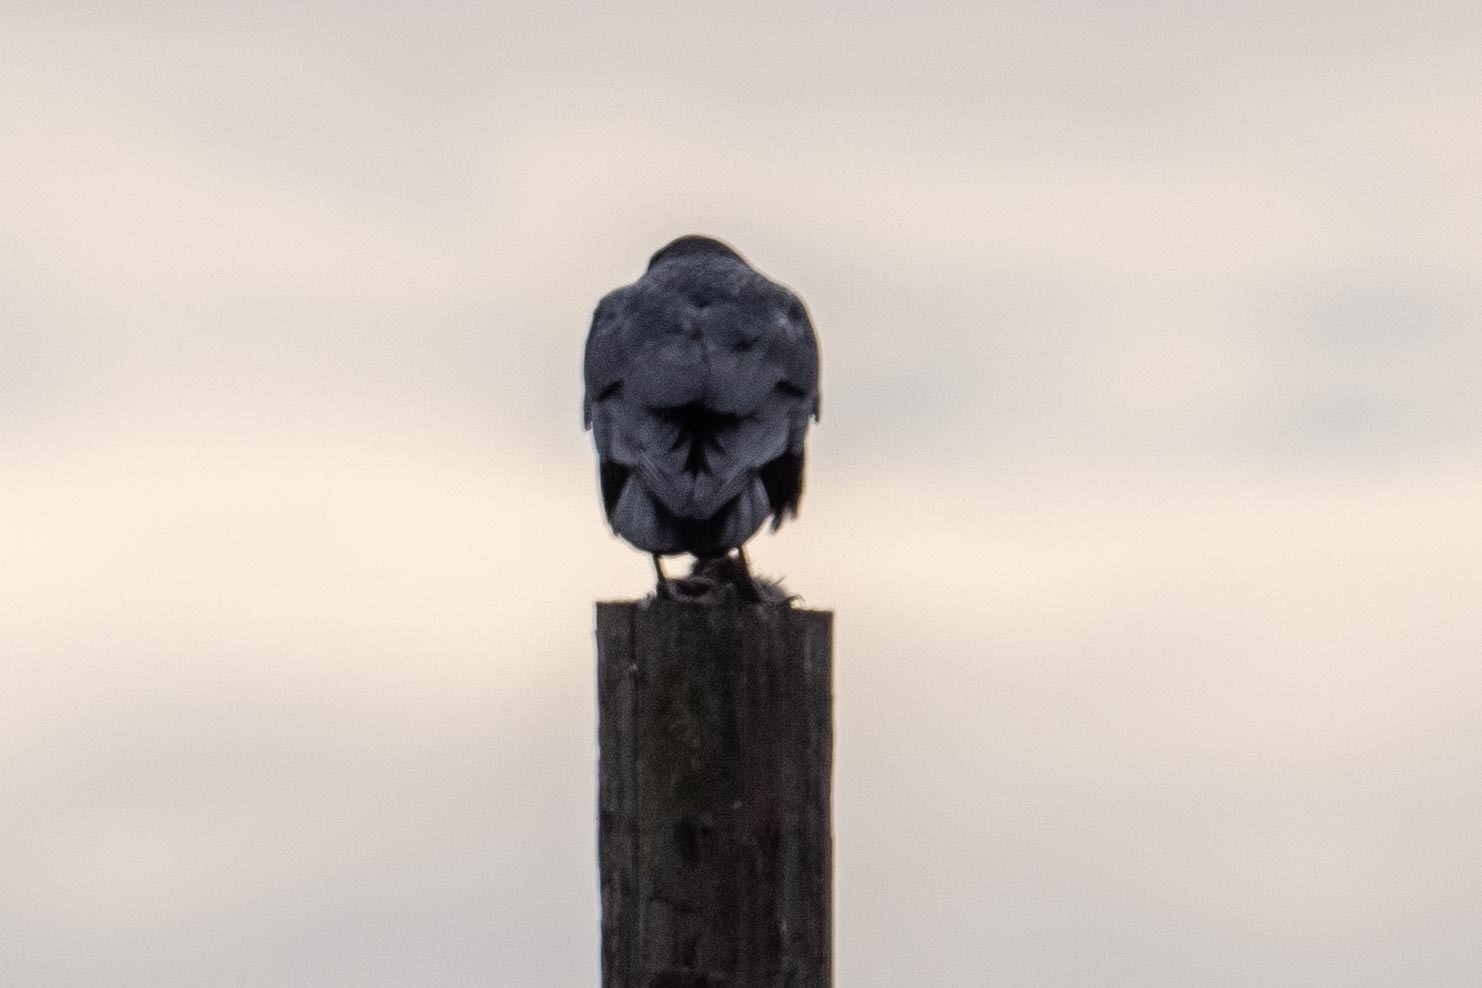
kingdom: Animalia
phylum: Chordata
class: Aves
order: Passeriformes
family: Corvidae
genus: Corvus
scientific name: Corvus corax
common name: Common raven
